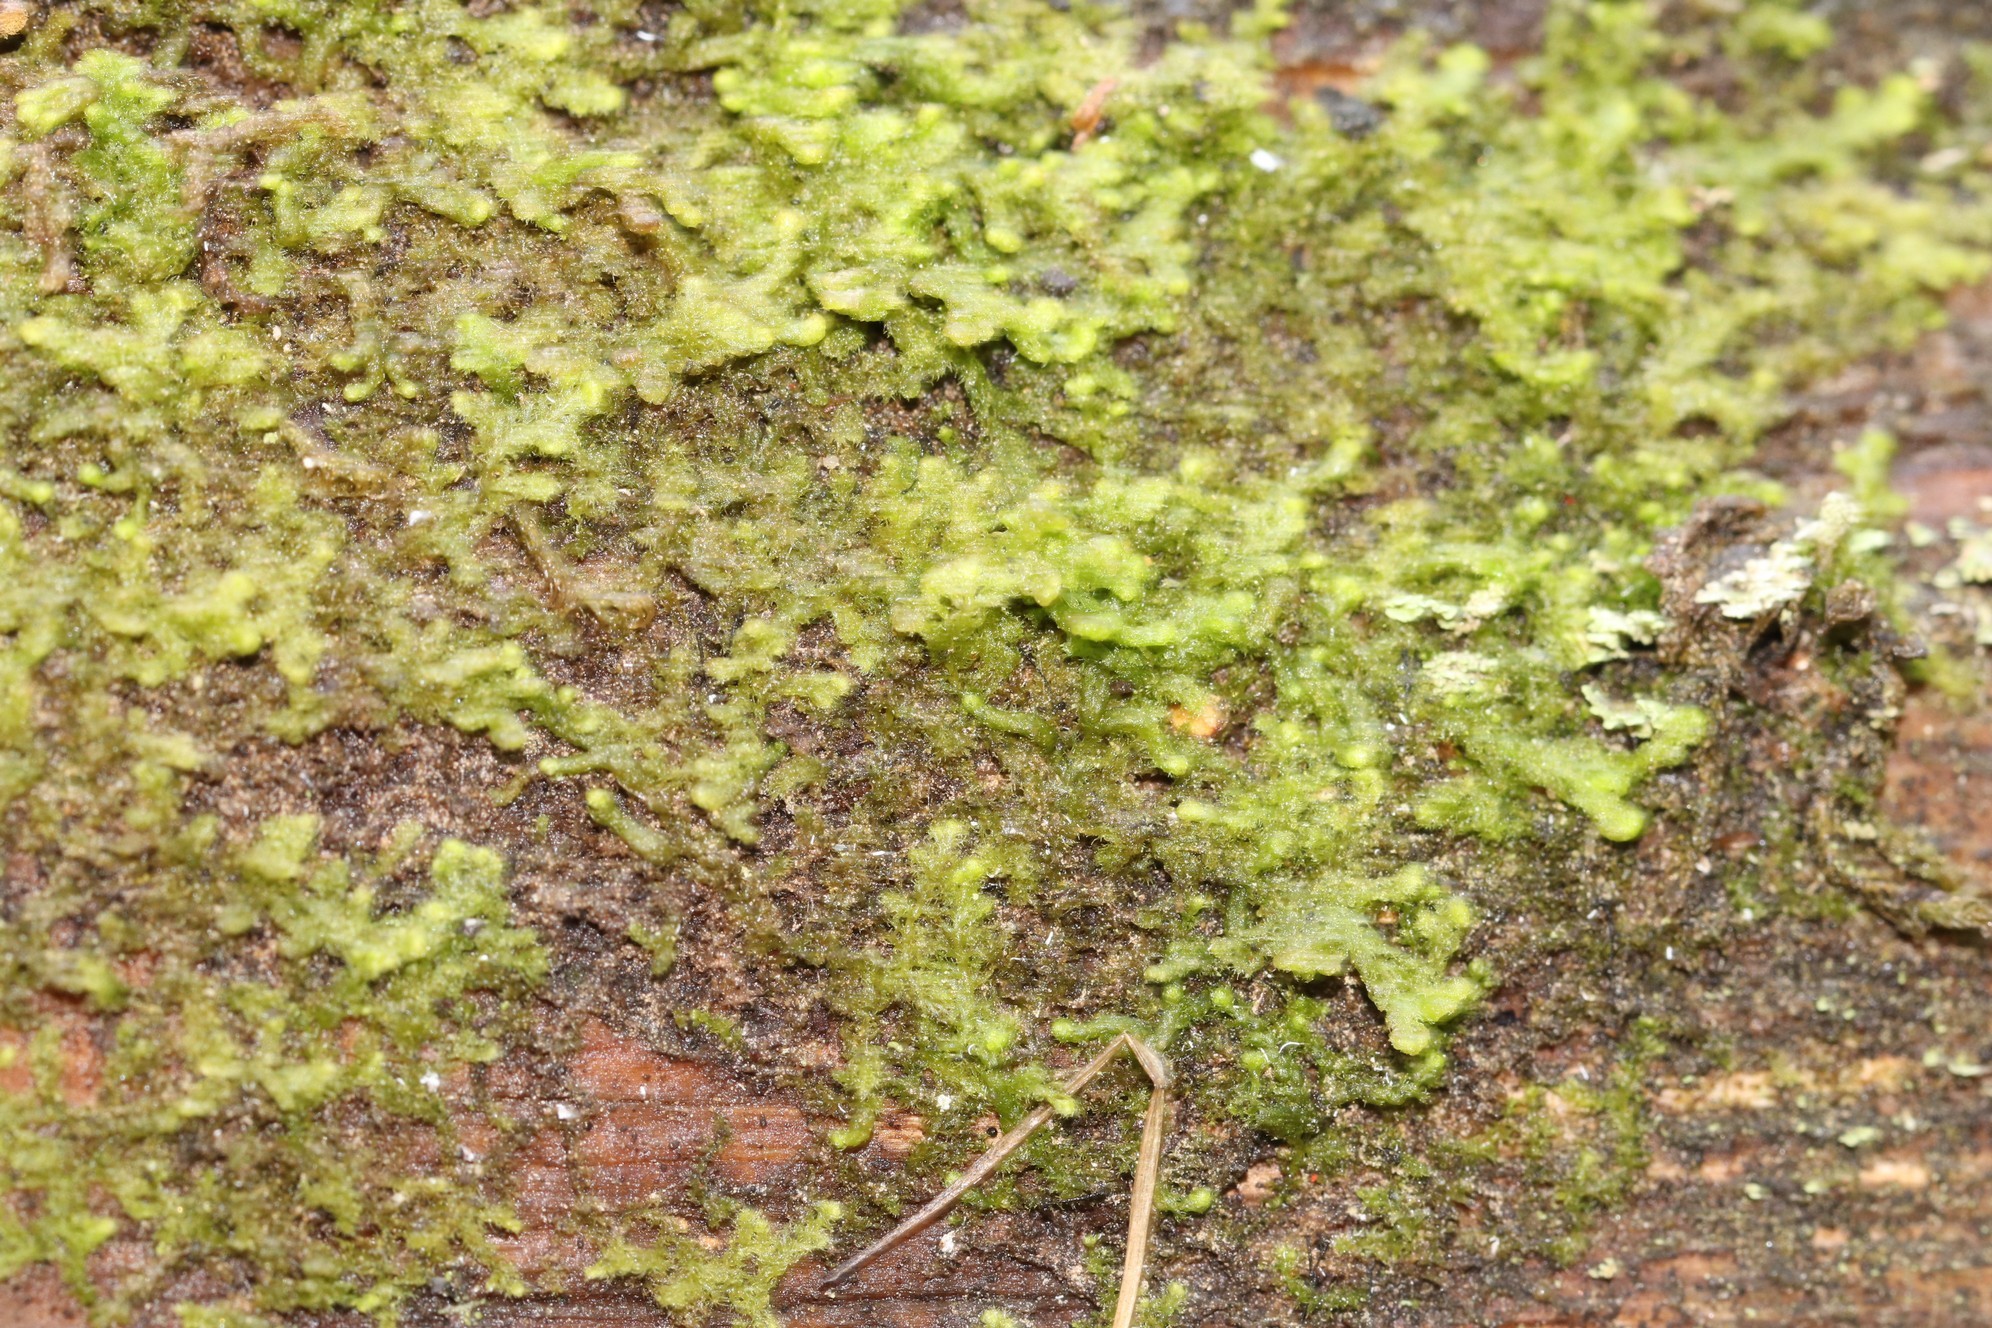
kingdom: Plantae
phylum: Marchantiophyta
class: Jungermanniopsida
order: Ptilidiales
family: Ptilidiaceae
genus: Ptilidium
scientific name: Ptilidium pulcherrimum
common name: Tree fringewort
